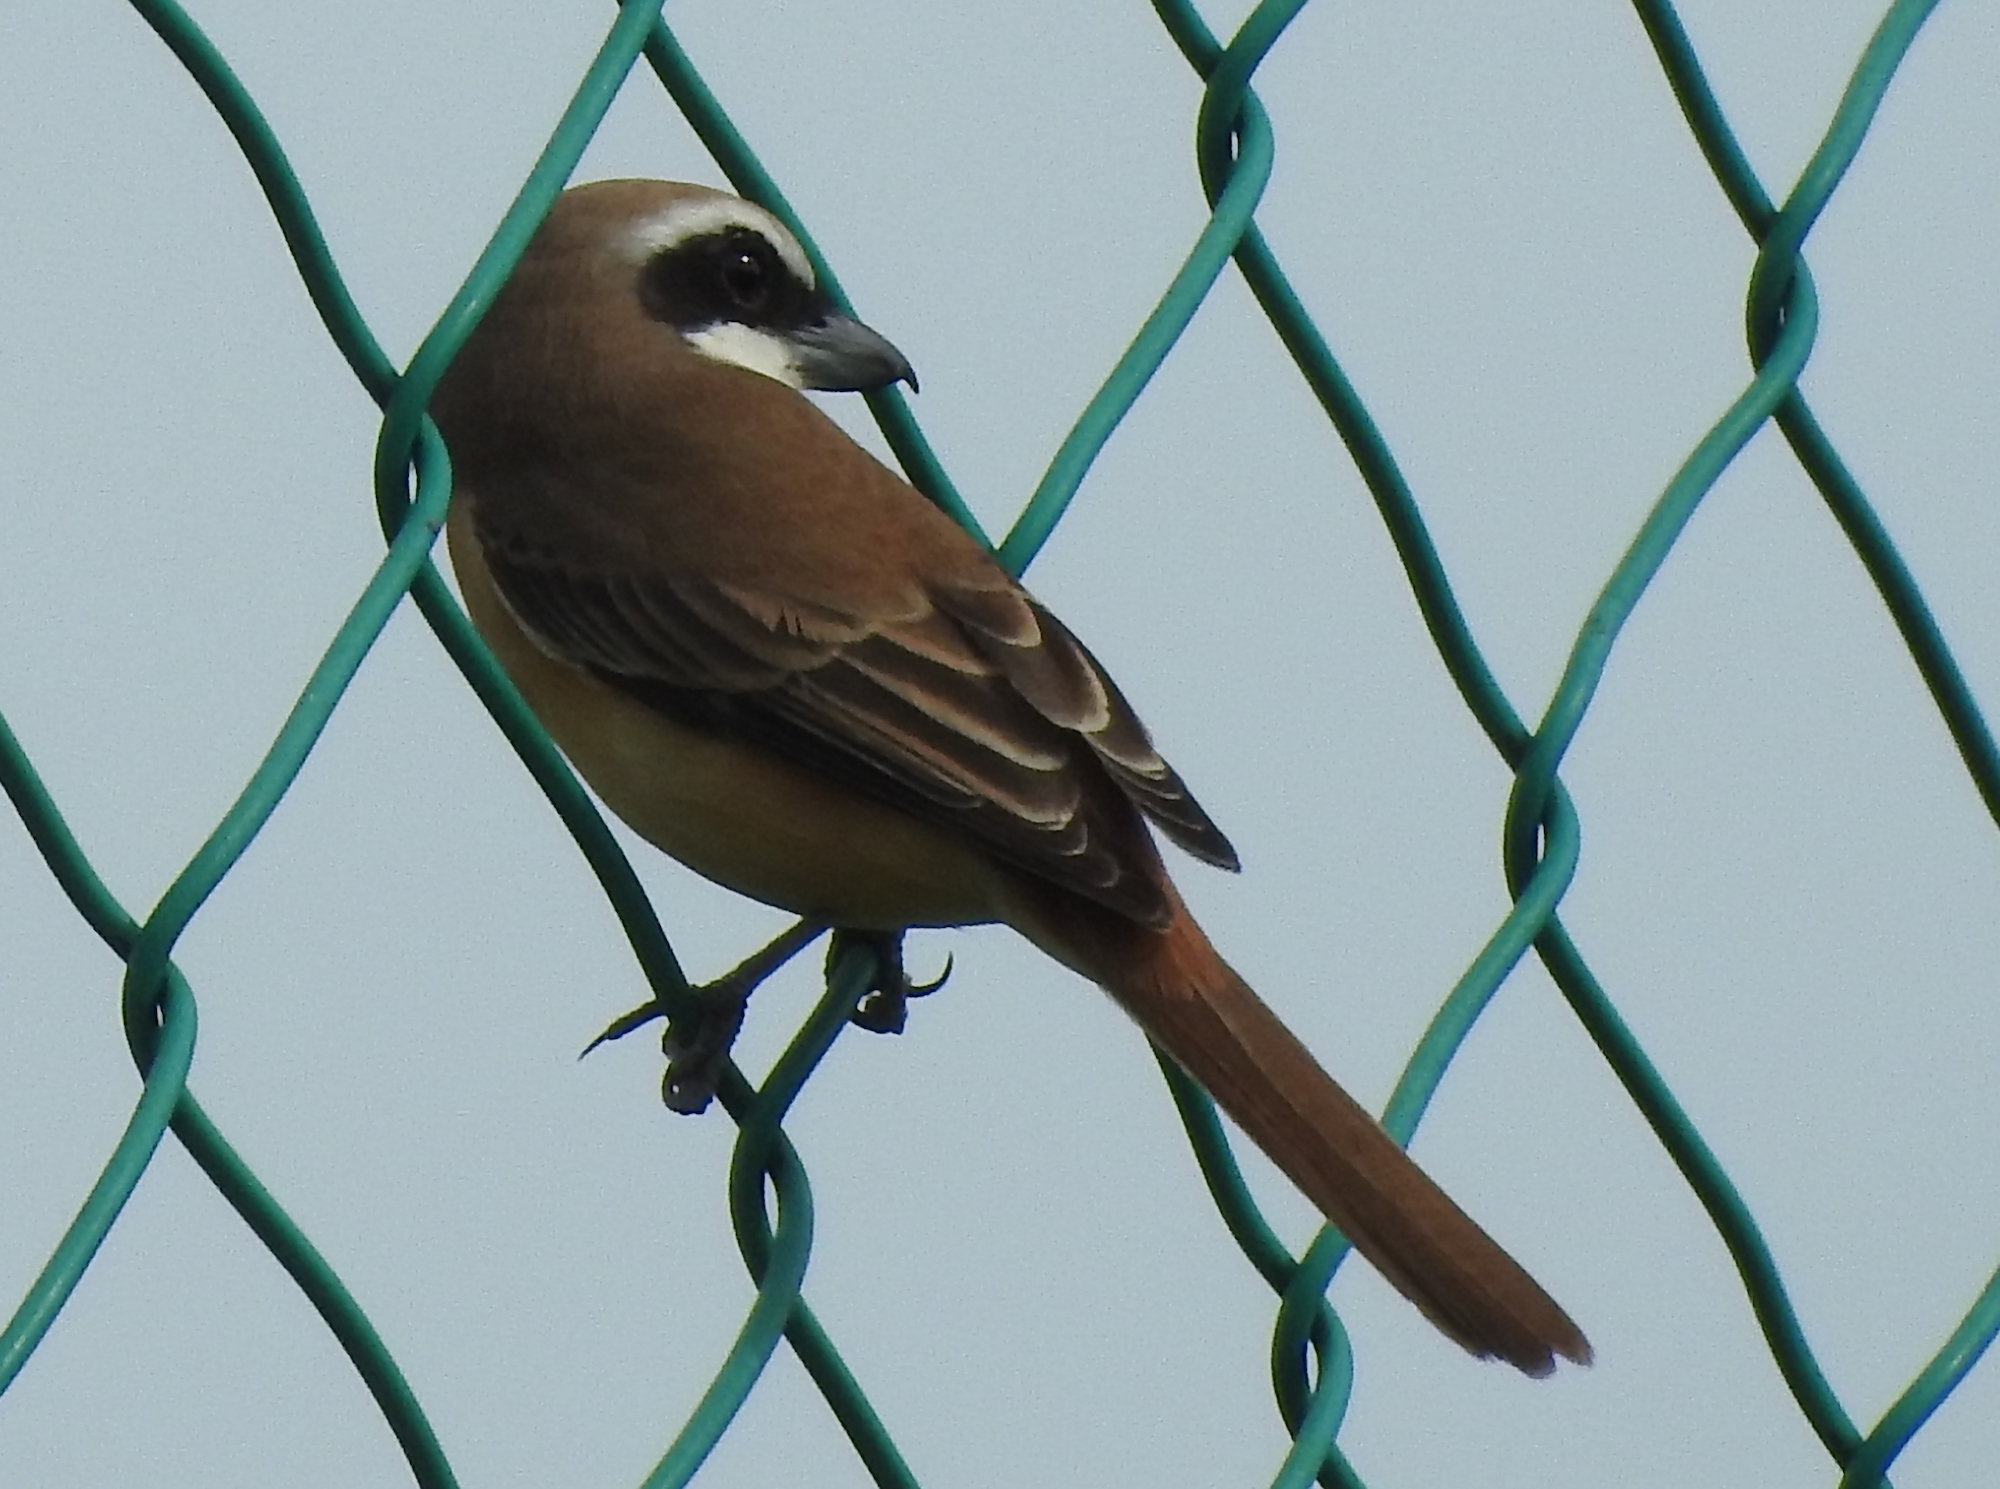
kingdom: Animalia
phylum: Chordata
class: Aves
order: Passeriformes
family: Laniidae
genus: Lanius
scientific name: Lanius cristatus
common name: Brown shrike
